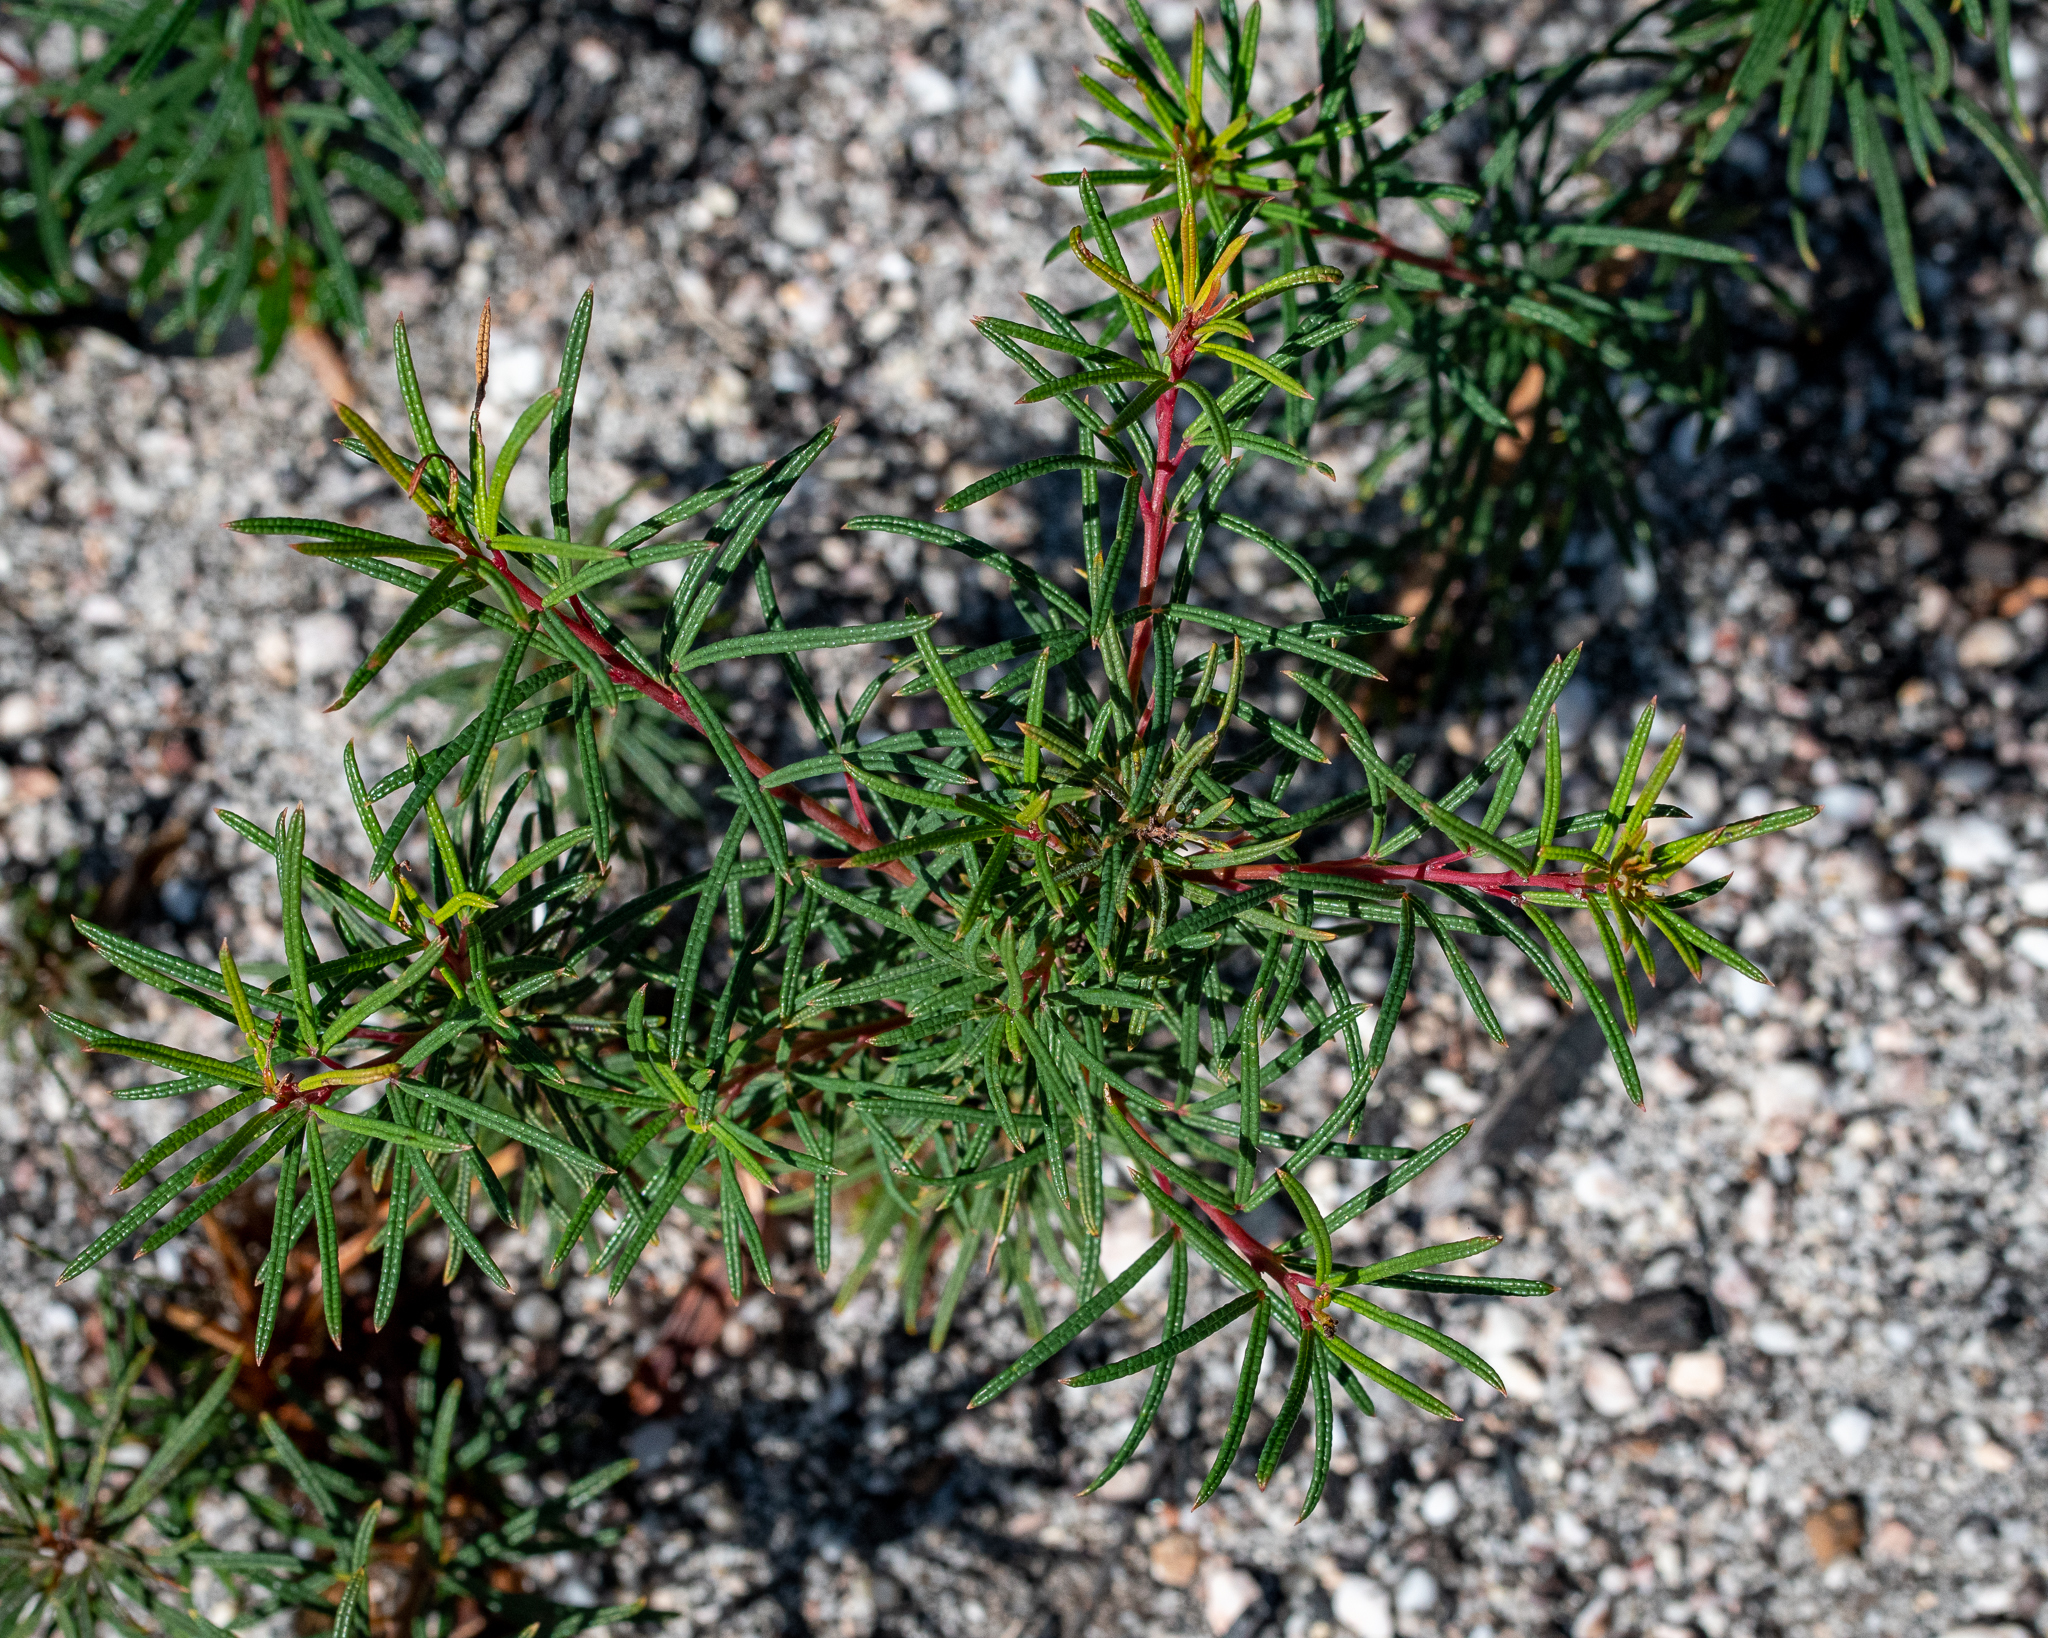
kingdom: Plantae
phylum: Tracheophyta
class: Magnoliopsida
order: Sapindales
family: Anacardiaceae
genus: Searsia
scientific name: Searsia rosmarinifolia
